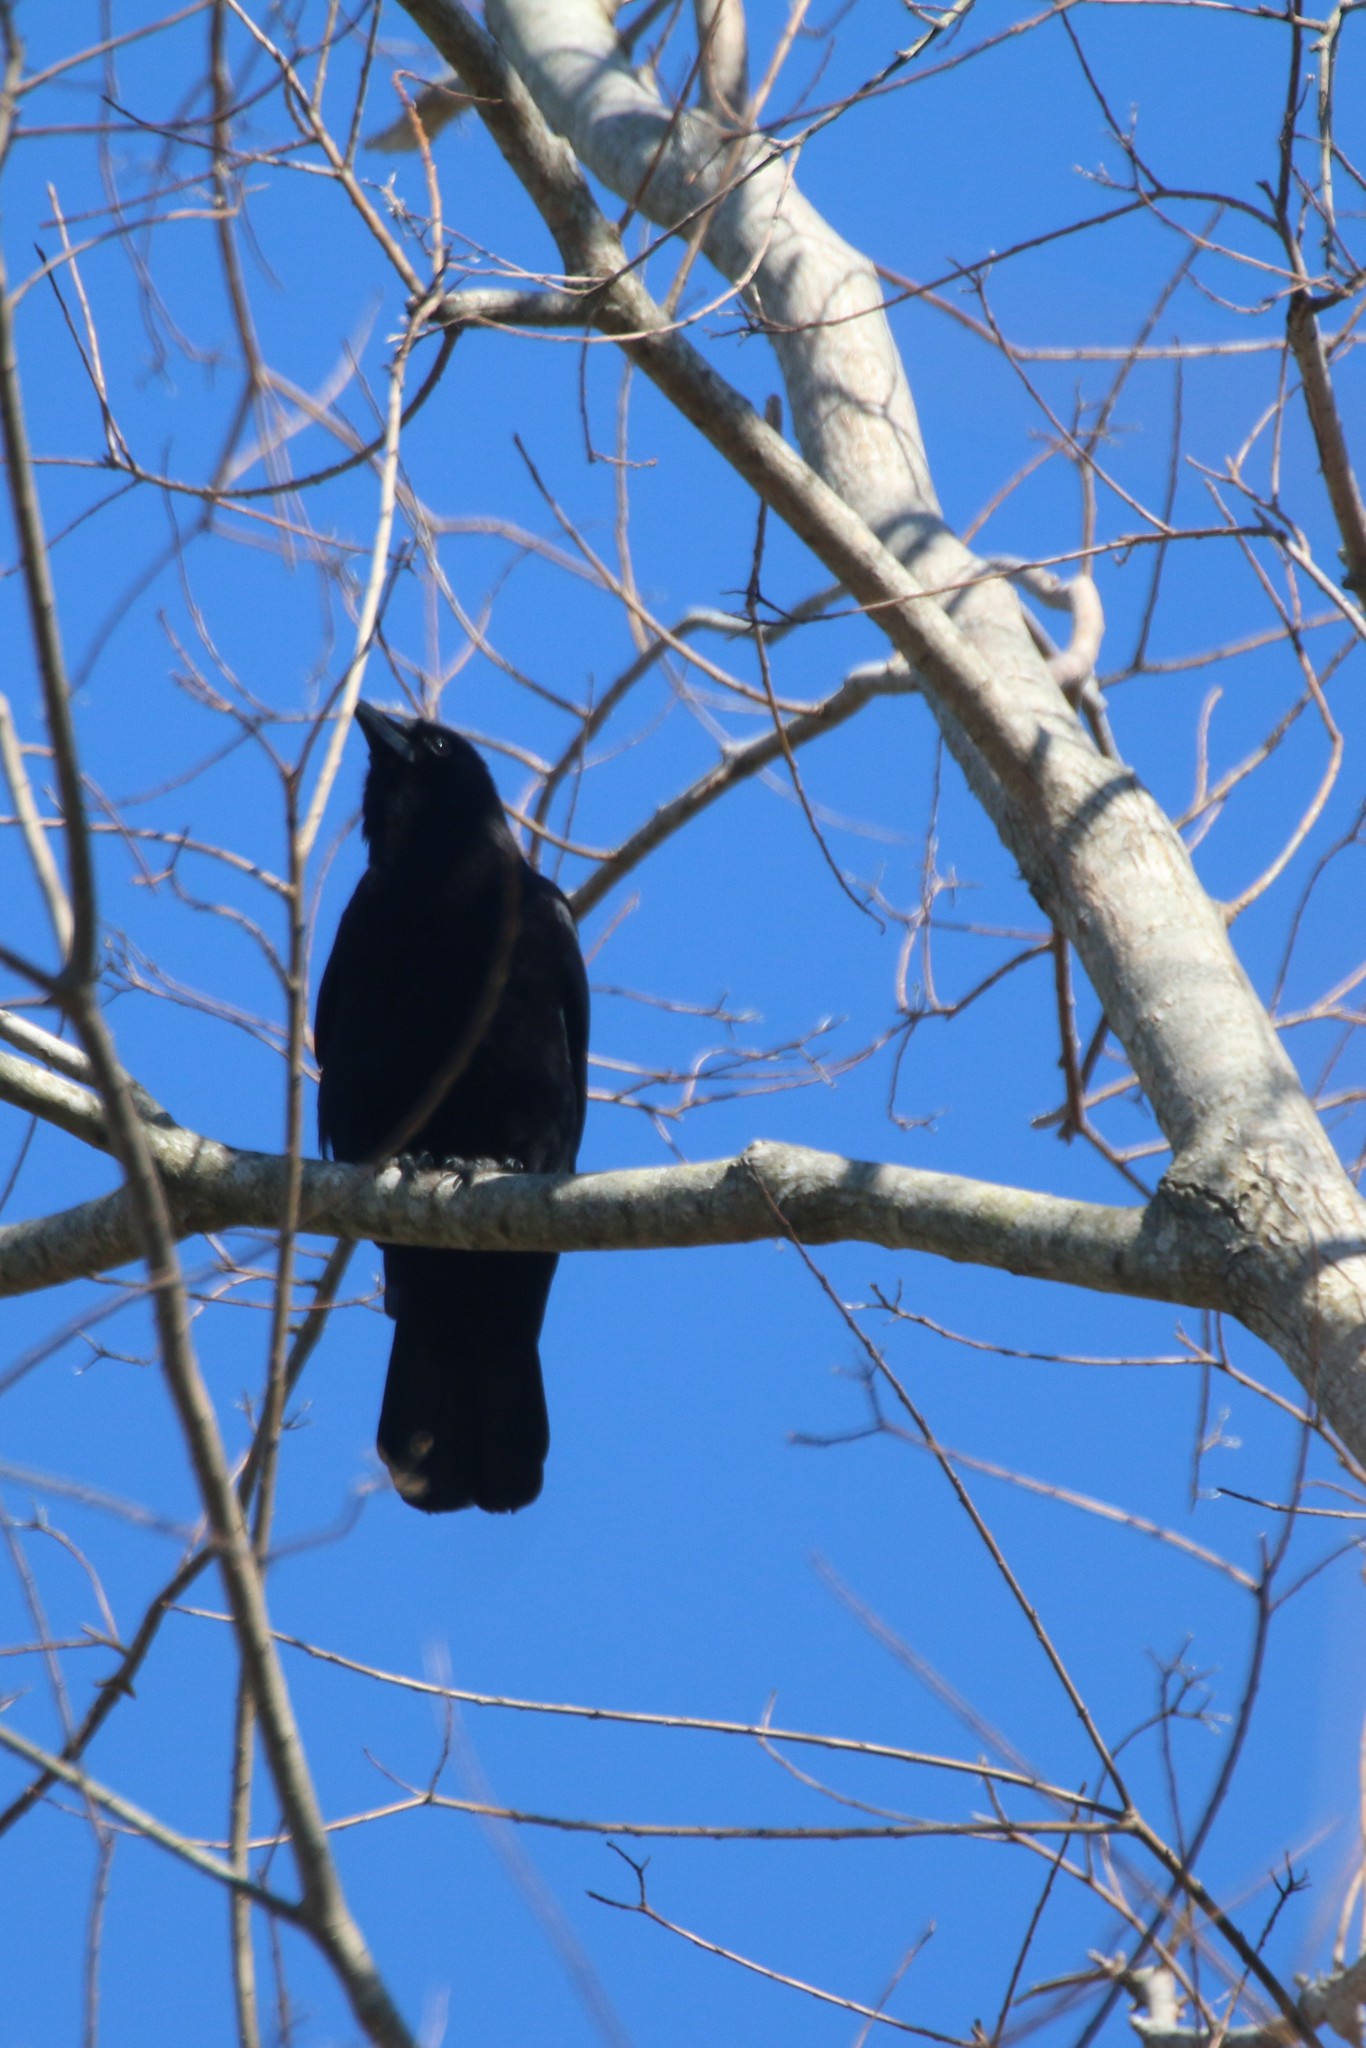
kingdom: Animalia
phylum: Chordata
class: Aves
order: Passeriformes
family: Corvidae
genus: Corvus
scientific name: Corvus
